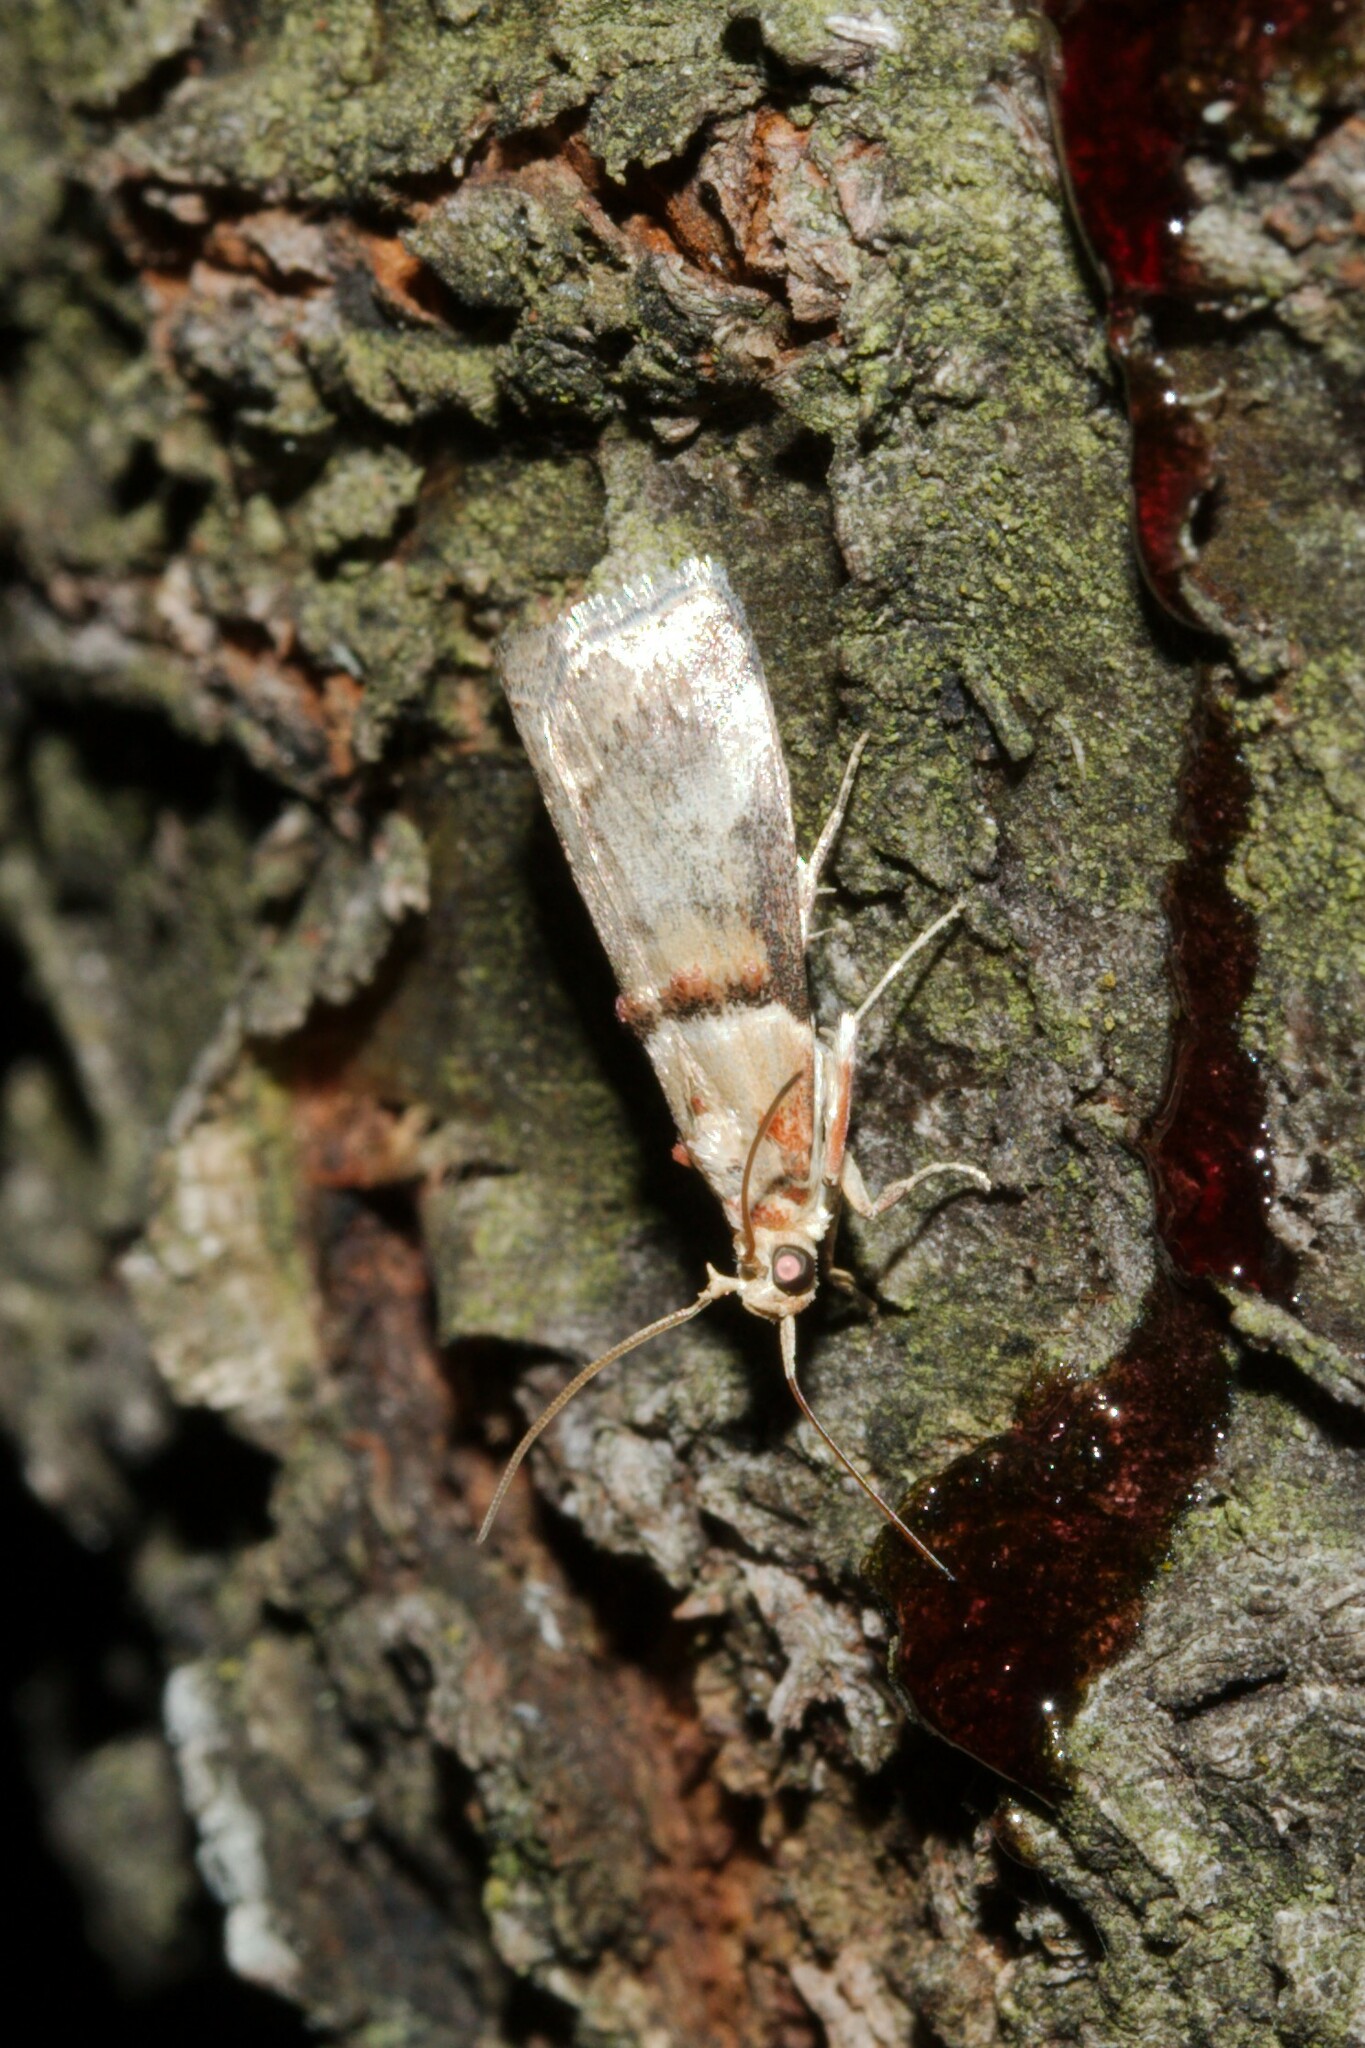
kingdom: Animalia
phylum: Arthropoda
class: Insecta
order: Lepidoptera
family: Pyralidae
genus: Acrobasis
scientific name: Acrobasis tumidana
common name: Scarce oak knot-horn
